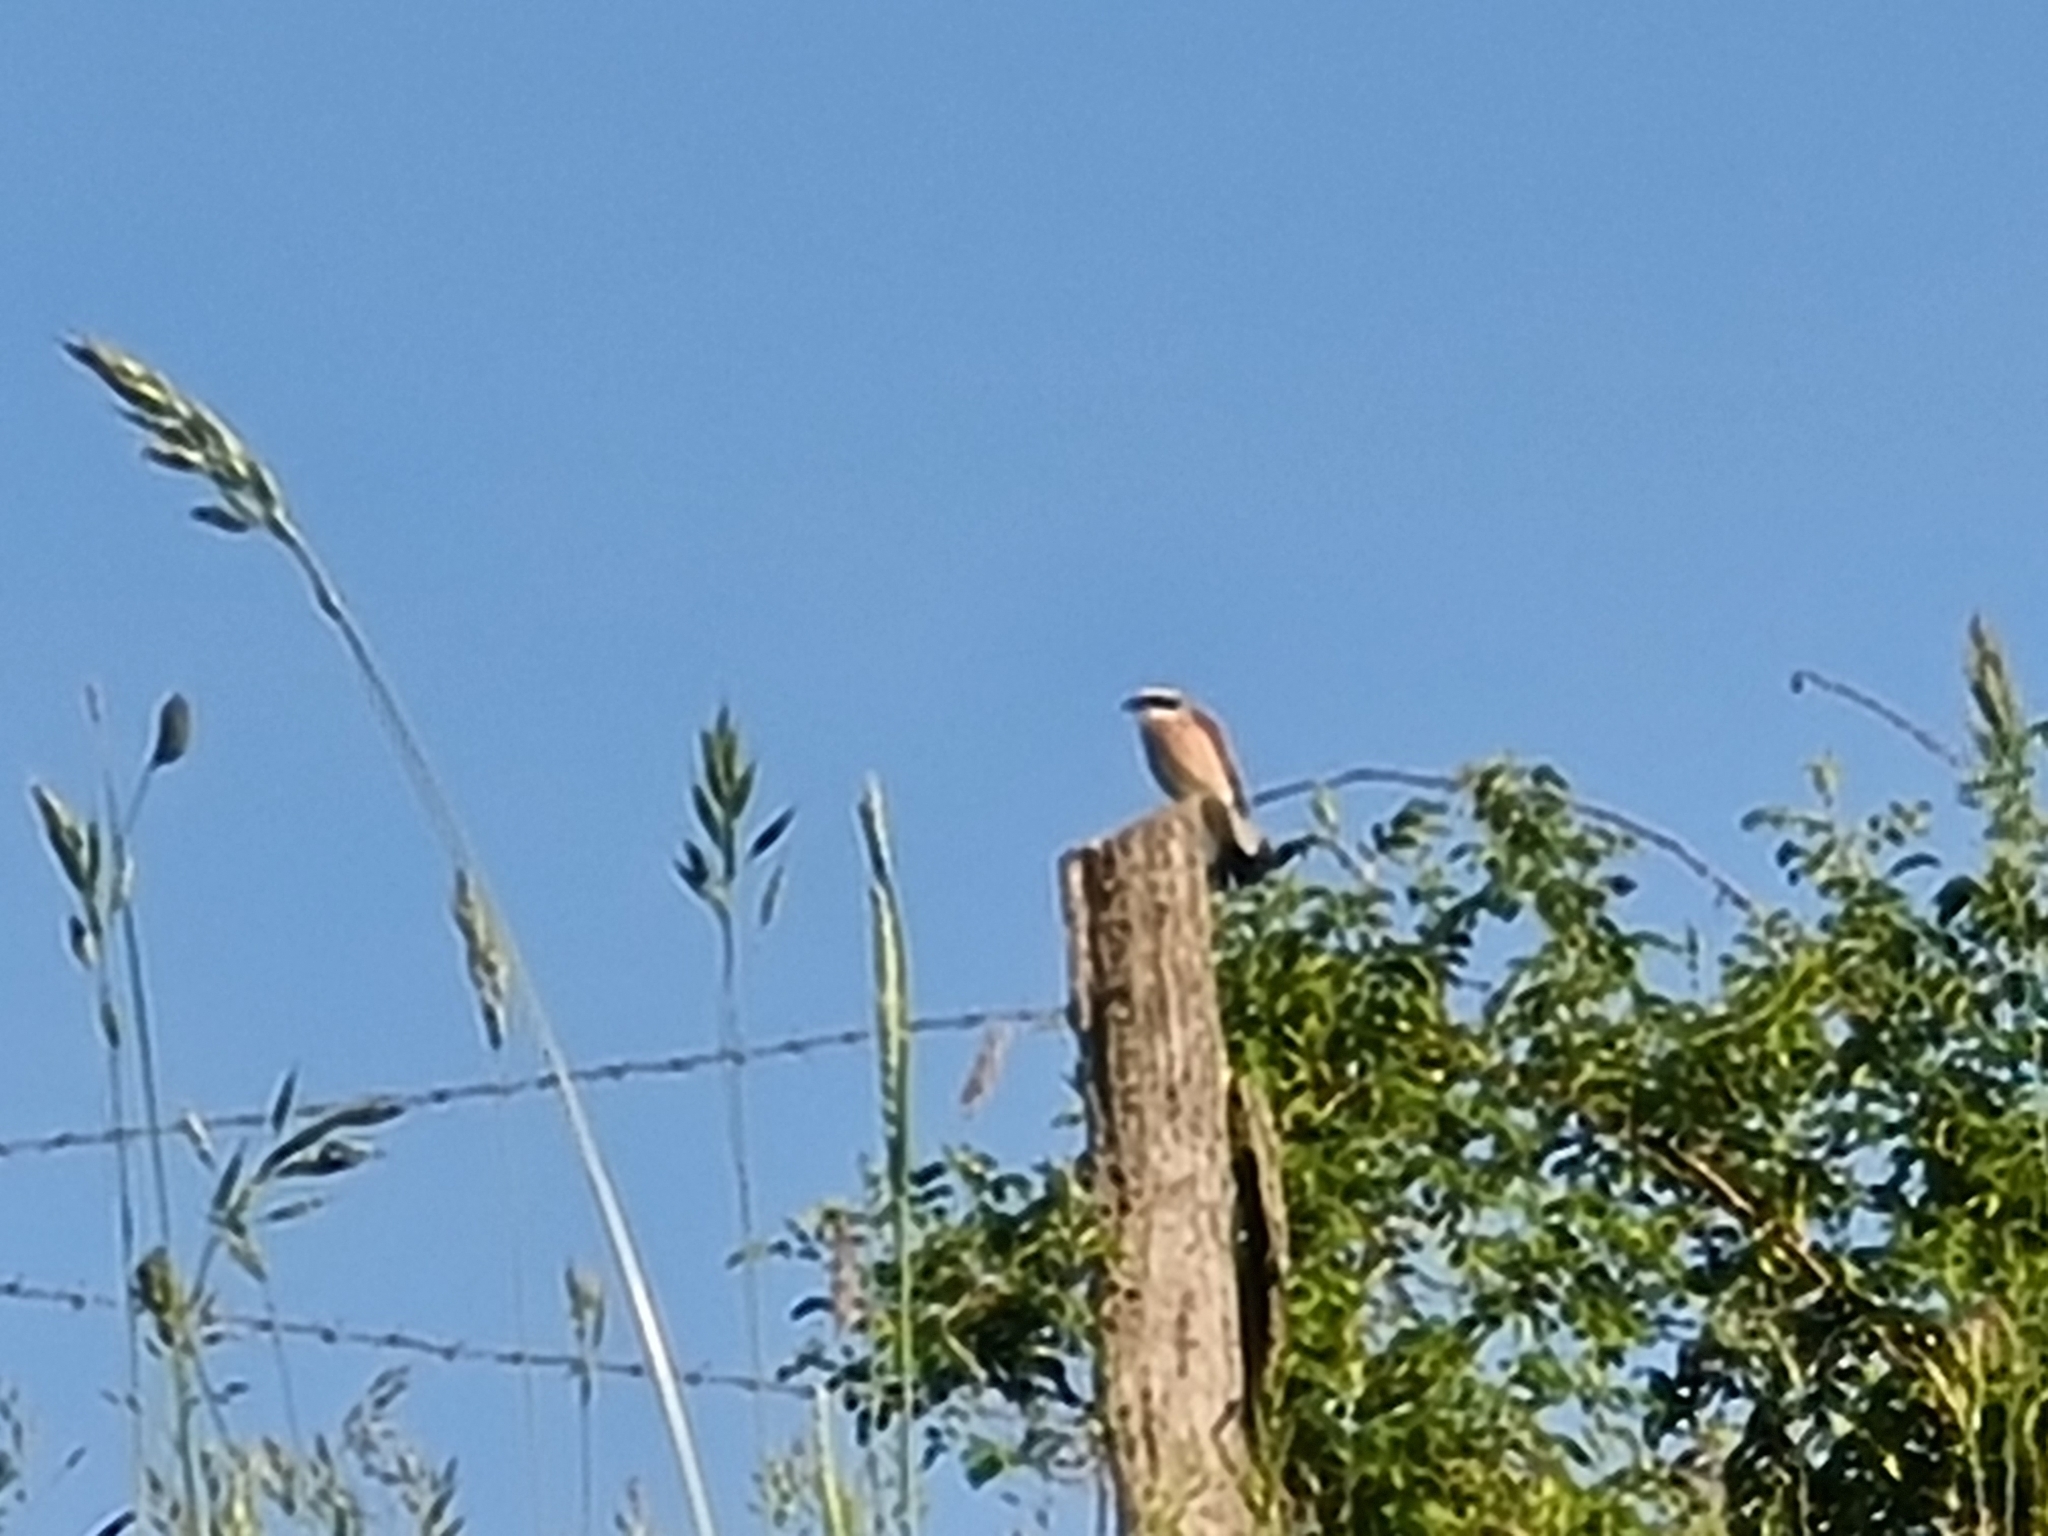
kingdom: Animalia
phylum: Chordata
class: Aves
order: Passeriformes
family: Laniidae
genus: Lanius
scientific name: Lanius collurio
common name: Red-backed shrike
